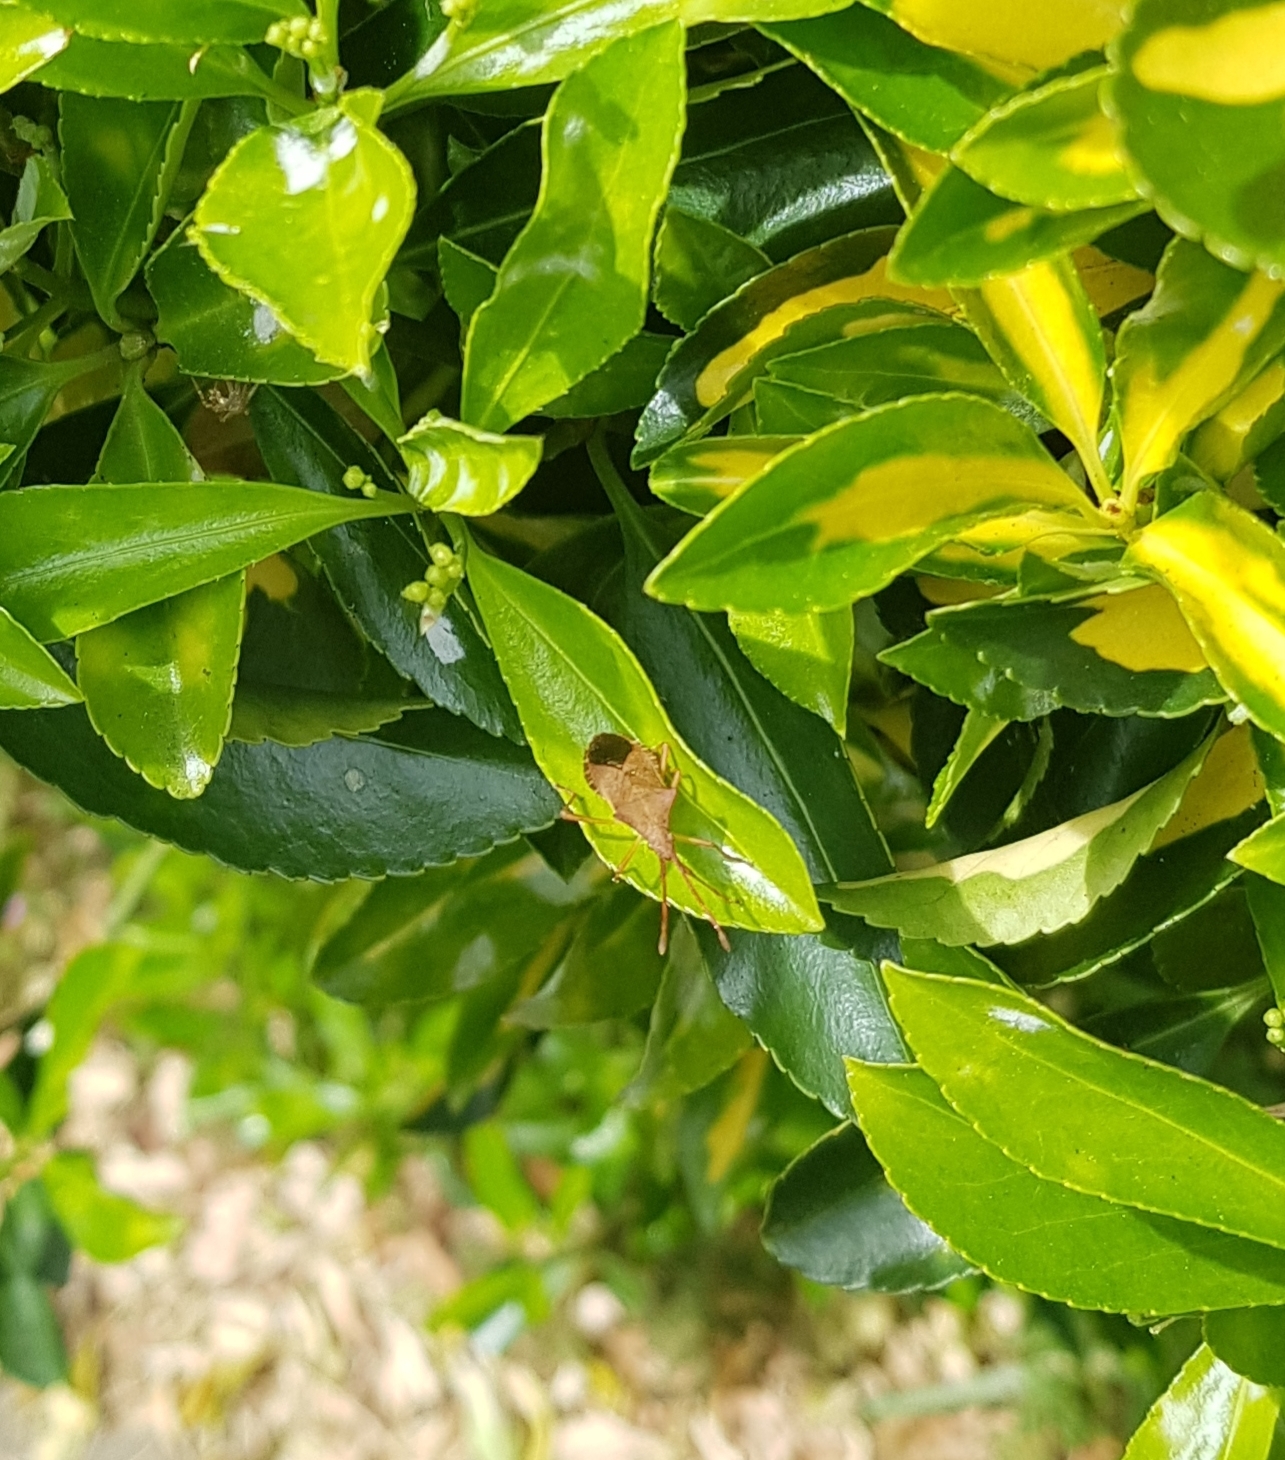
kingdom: Animalia
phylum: Arthropoda
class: Insecta
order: Hemiptera
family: Coreidae
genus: Gonocerus
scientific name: Gonocerus acuteangulatus
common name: Box bug
